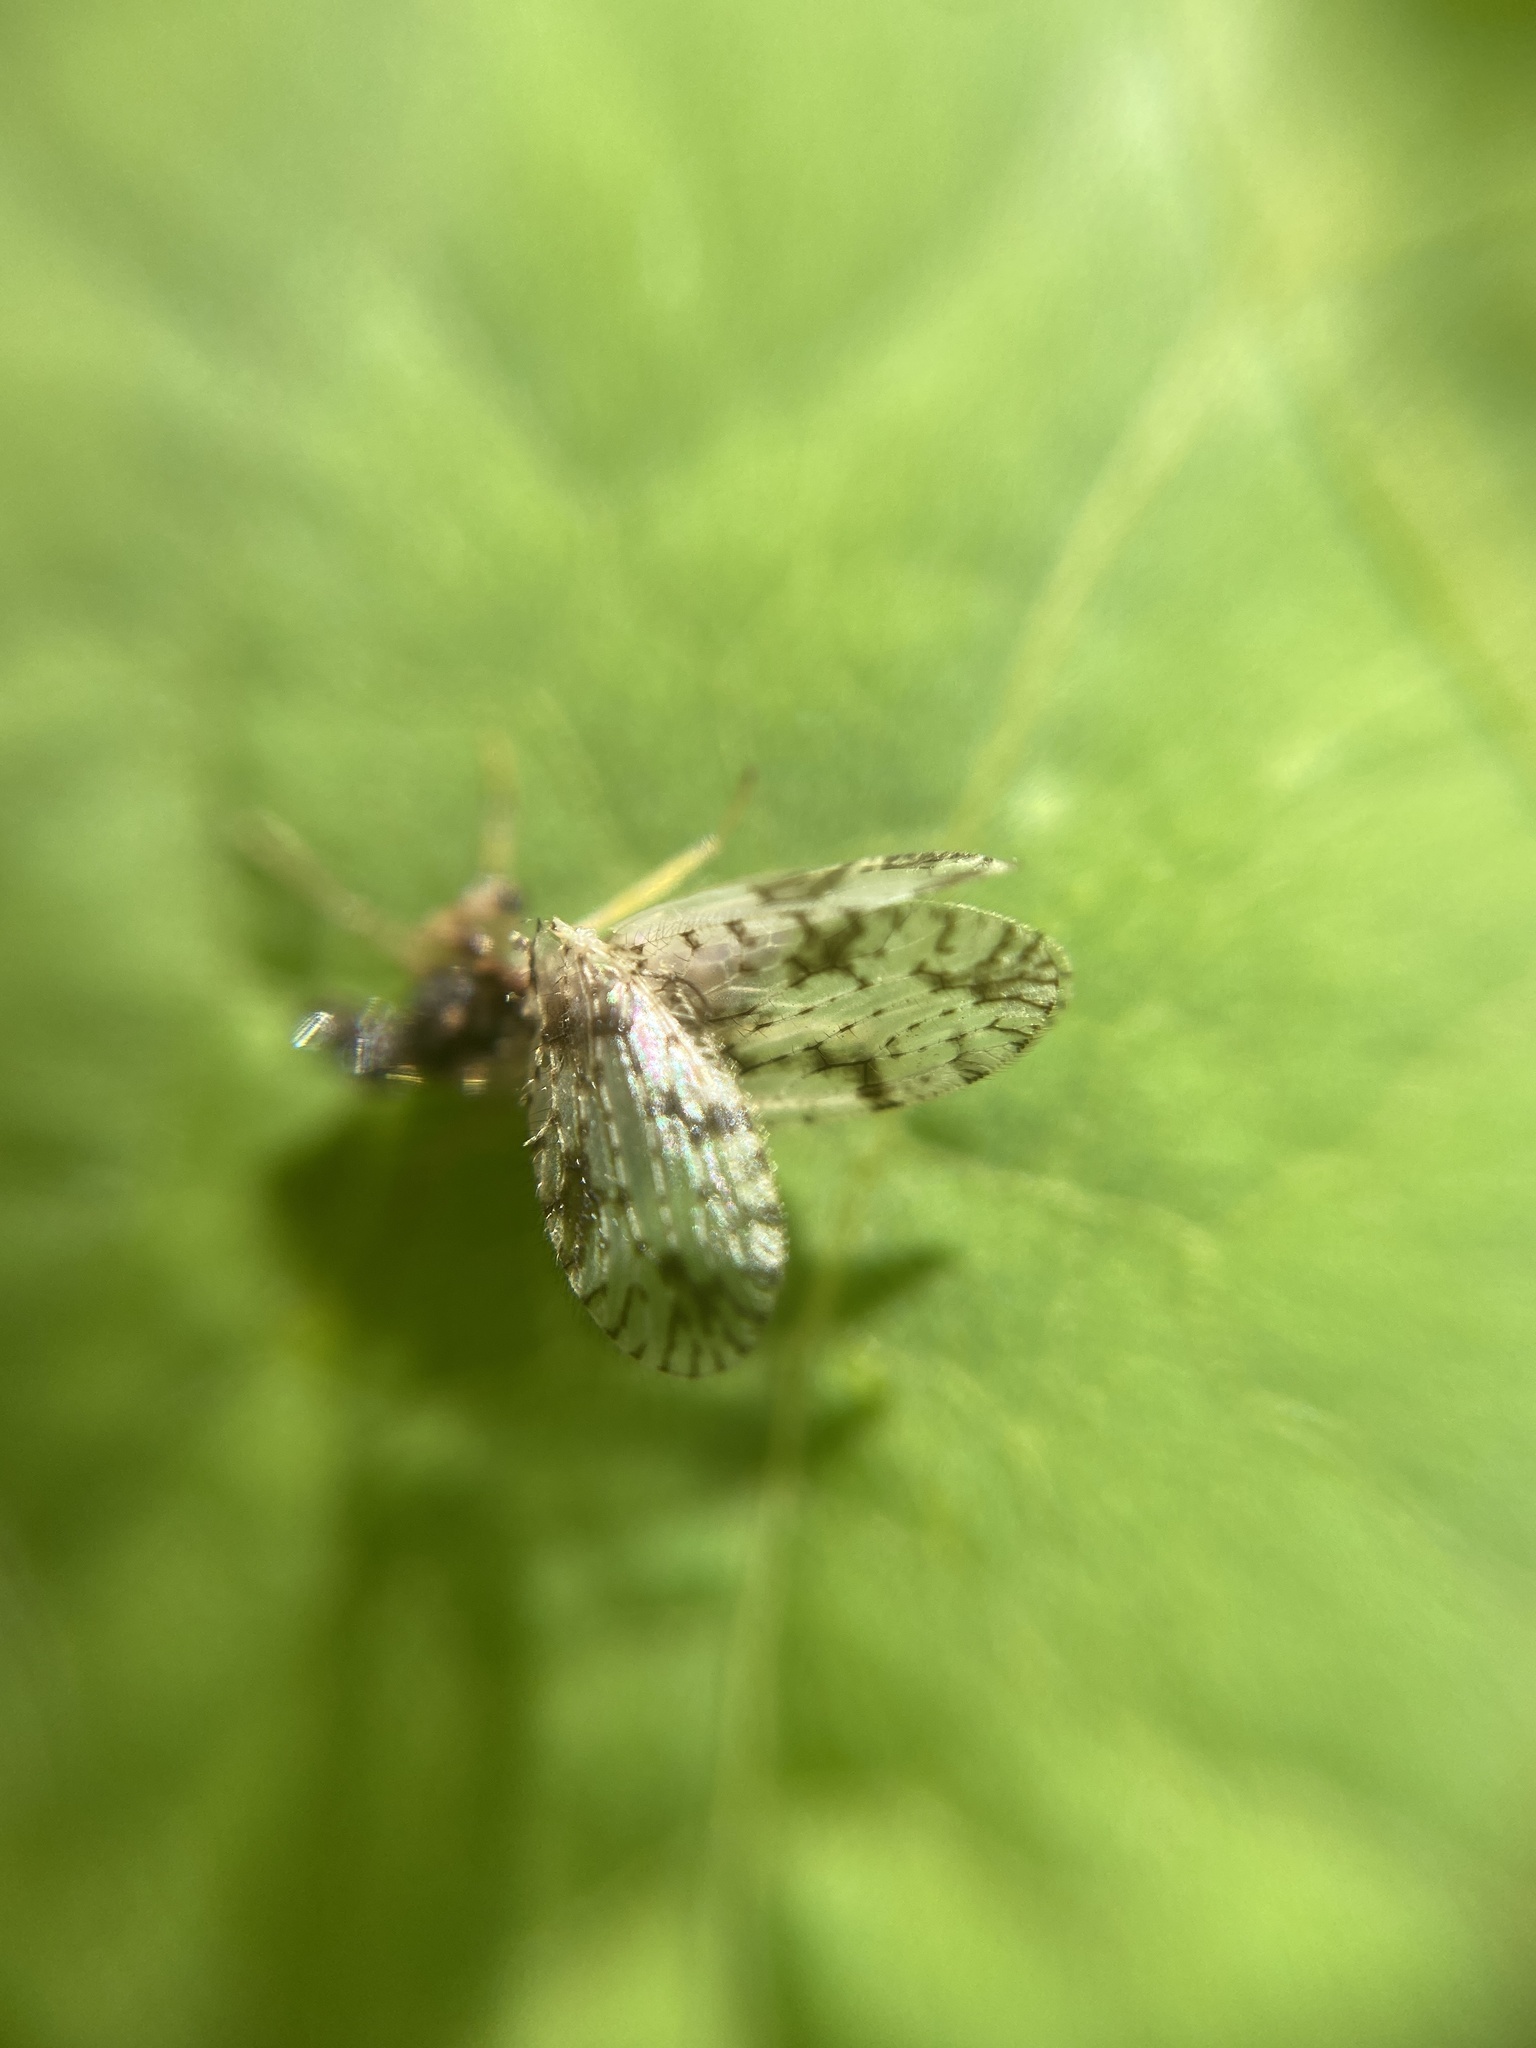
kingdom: Animalia
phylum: Arthropoda
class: Insecta
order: Neuroptera
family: Hemerobiidae
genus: Micromus
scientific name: Micromus variegatus
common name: Brown lacewing
